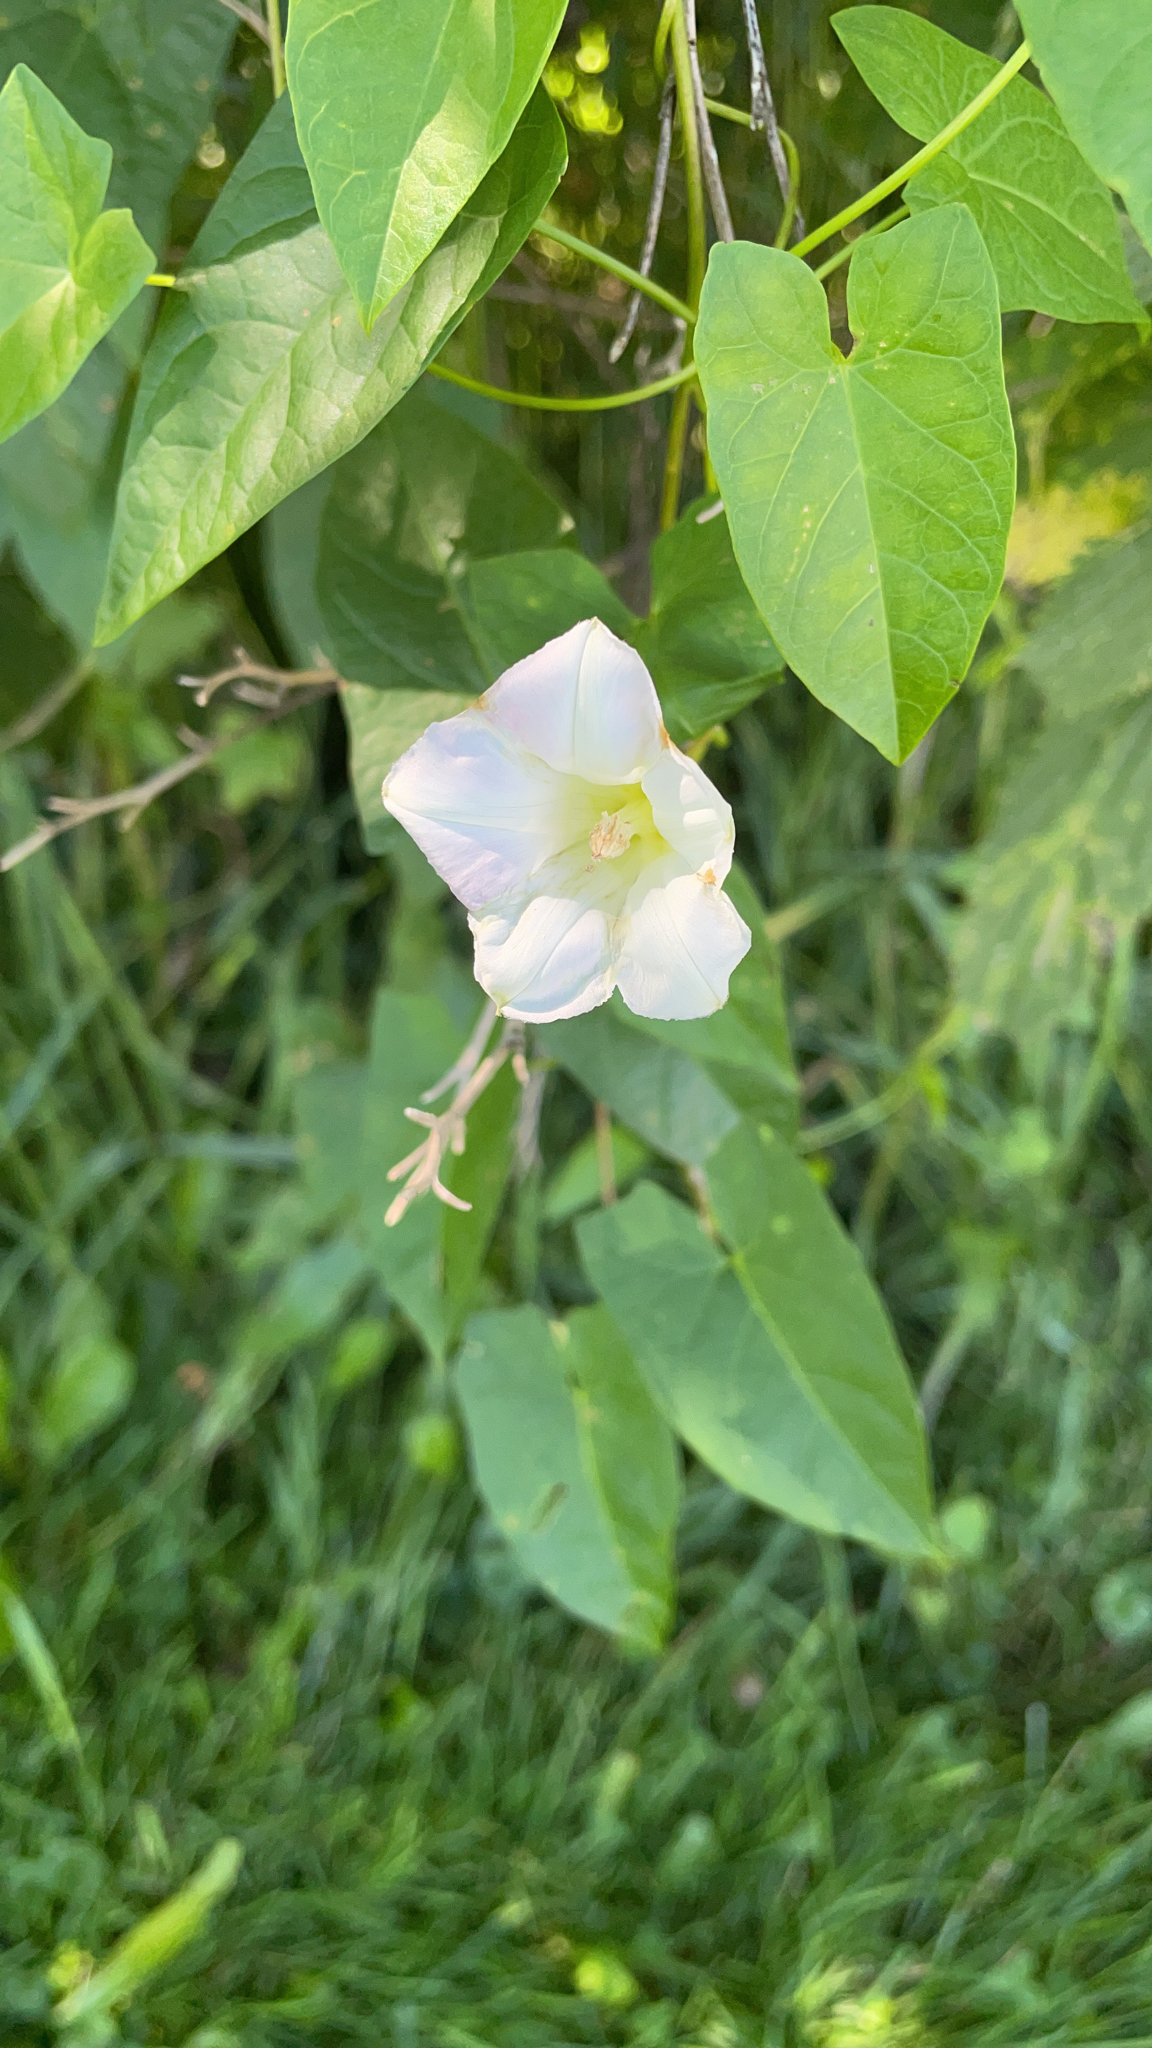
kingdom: Plantae
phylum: Tracheophyta
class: Magnoliopsida
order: Solanales
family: Convolvulaceae
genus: Calystegia
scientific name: Calystegia sepium
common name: Hedge bindweed
